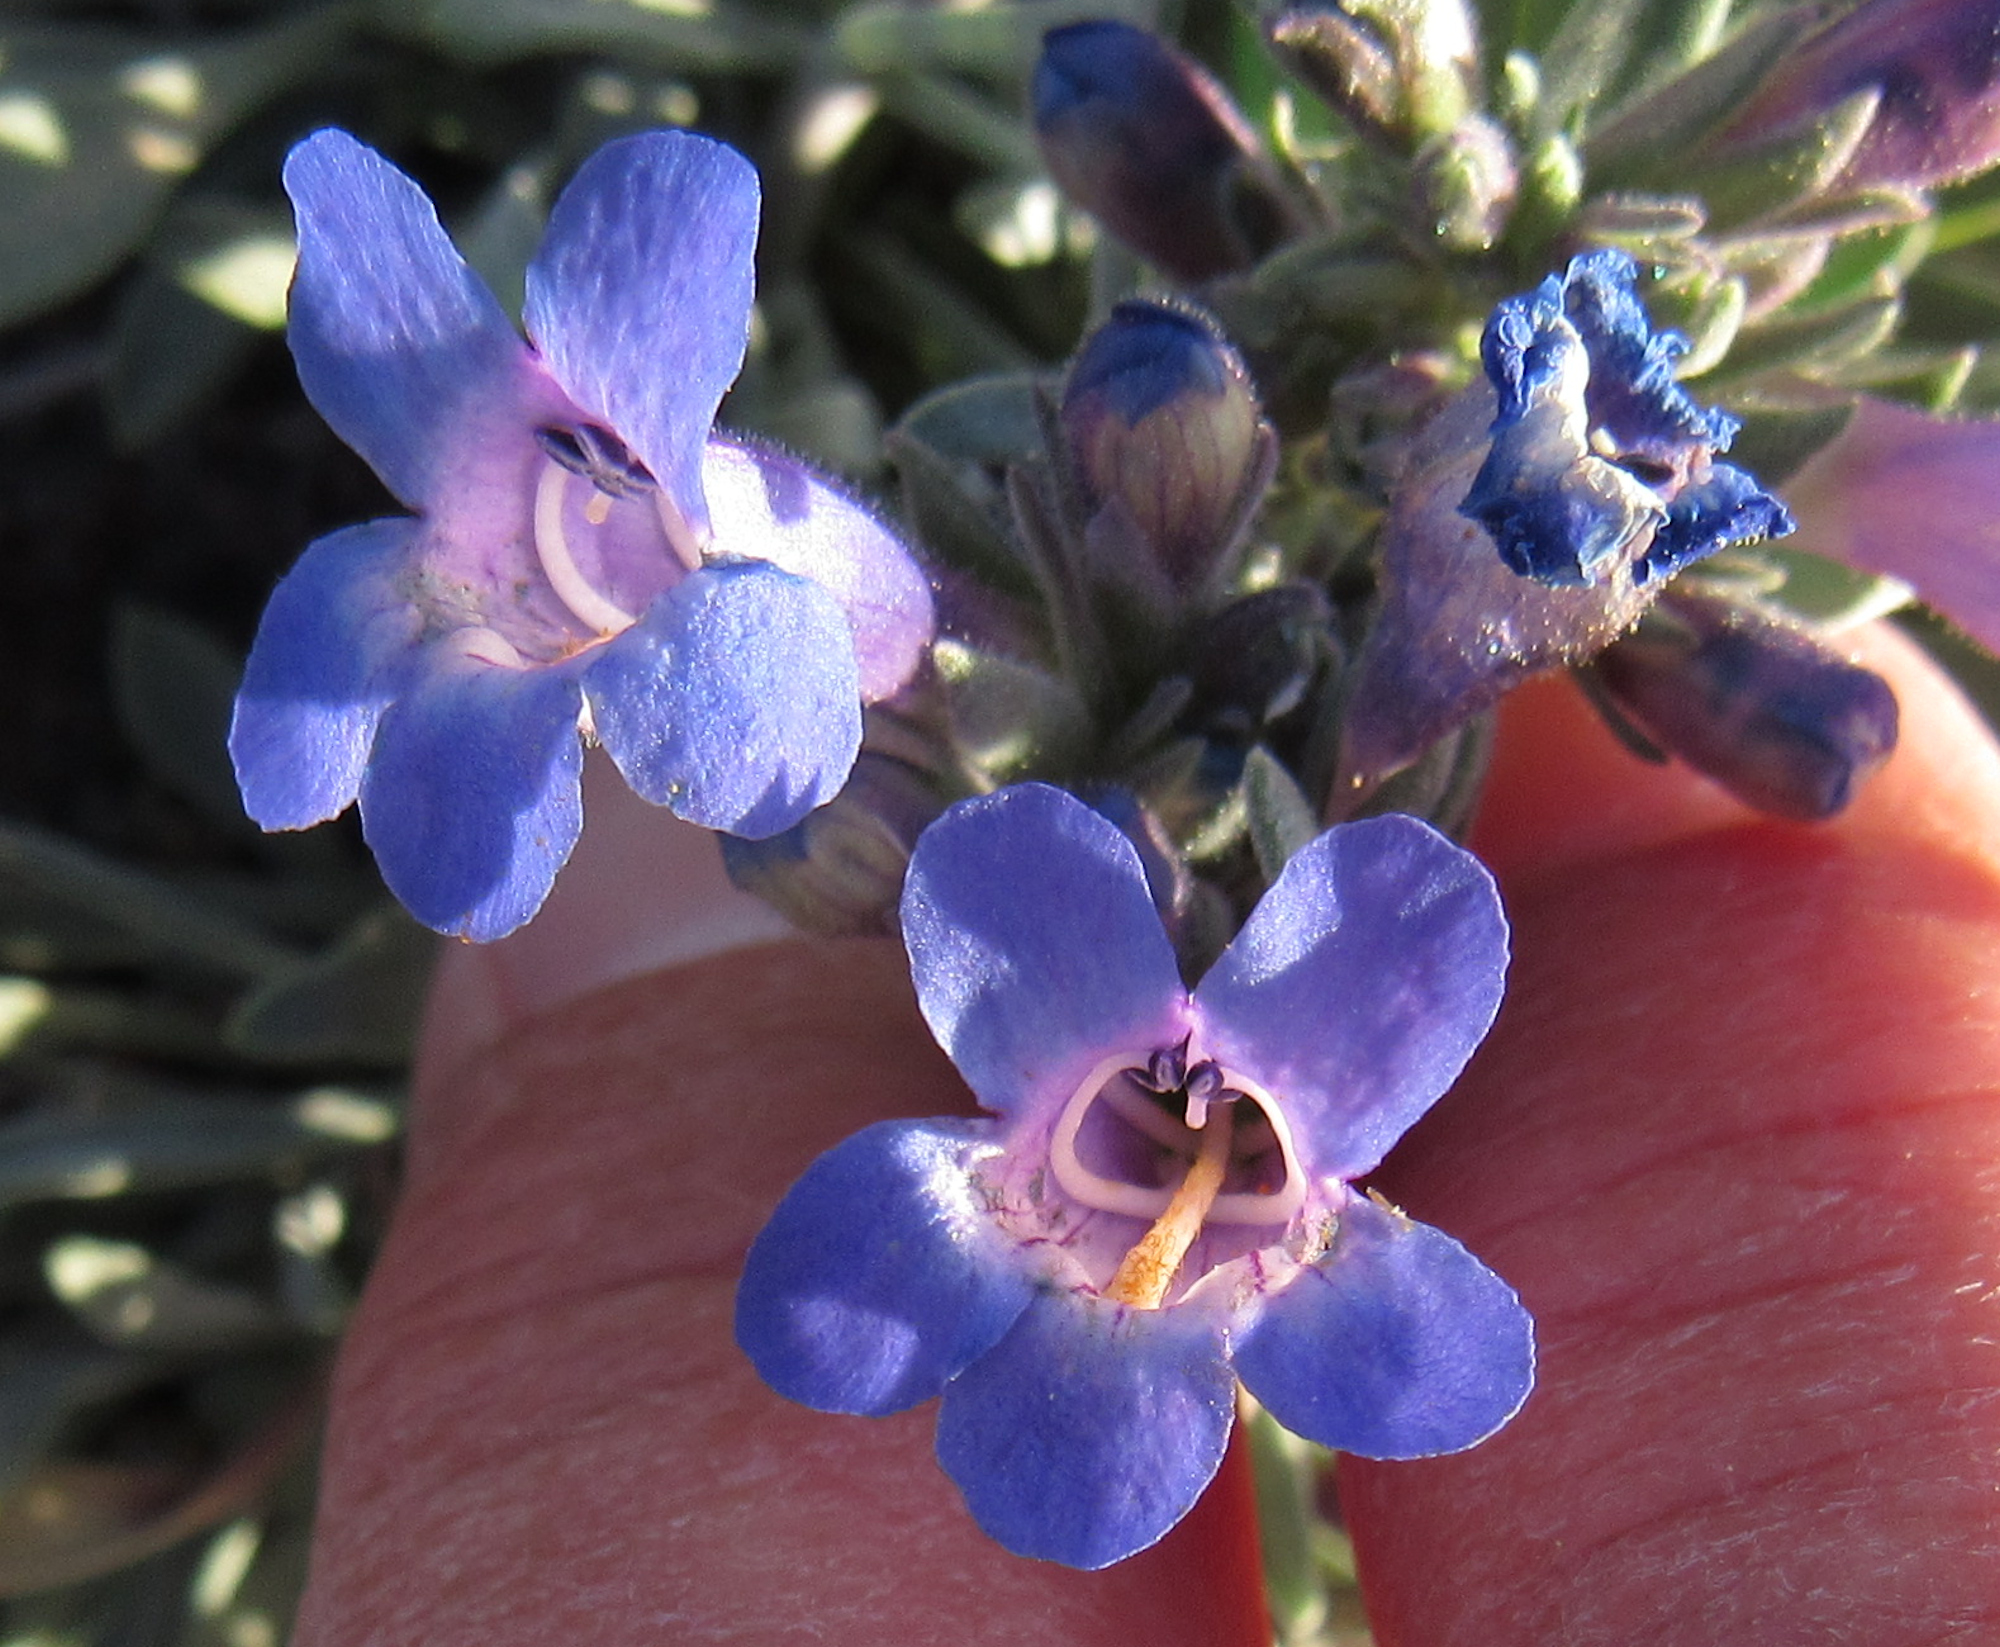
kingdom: Plantae
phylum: Tracheophyta
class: Magnoliopsida
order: Lamiales
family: Plantaginaceae
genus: Penstemon
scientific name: Penstemon pumilus
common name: Dwarf penstemon
